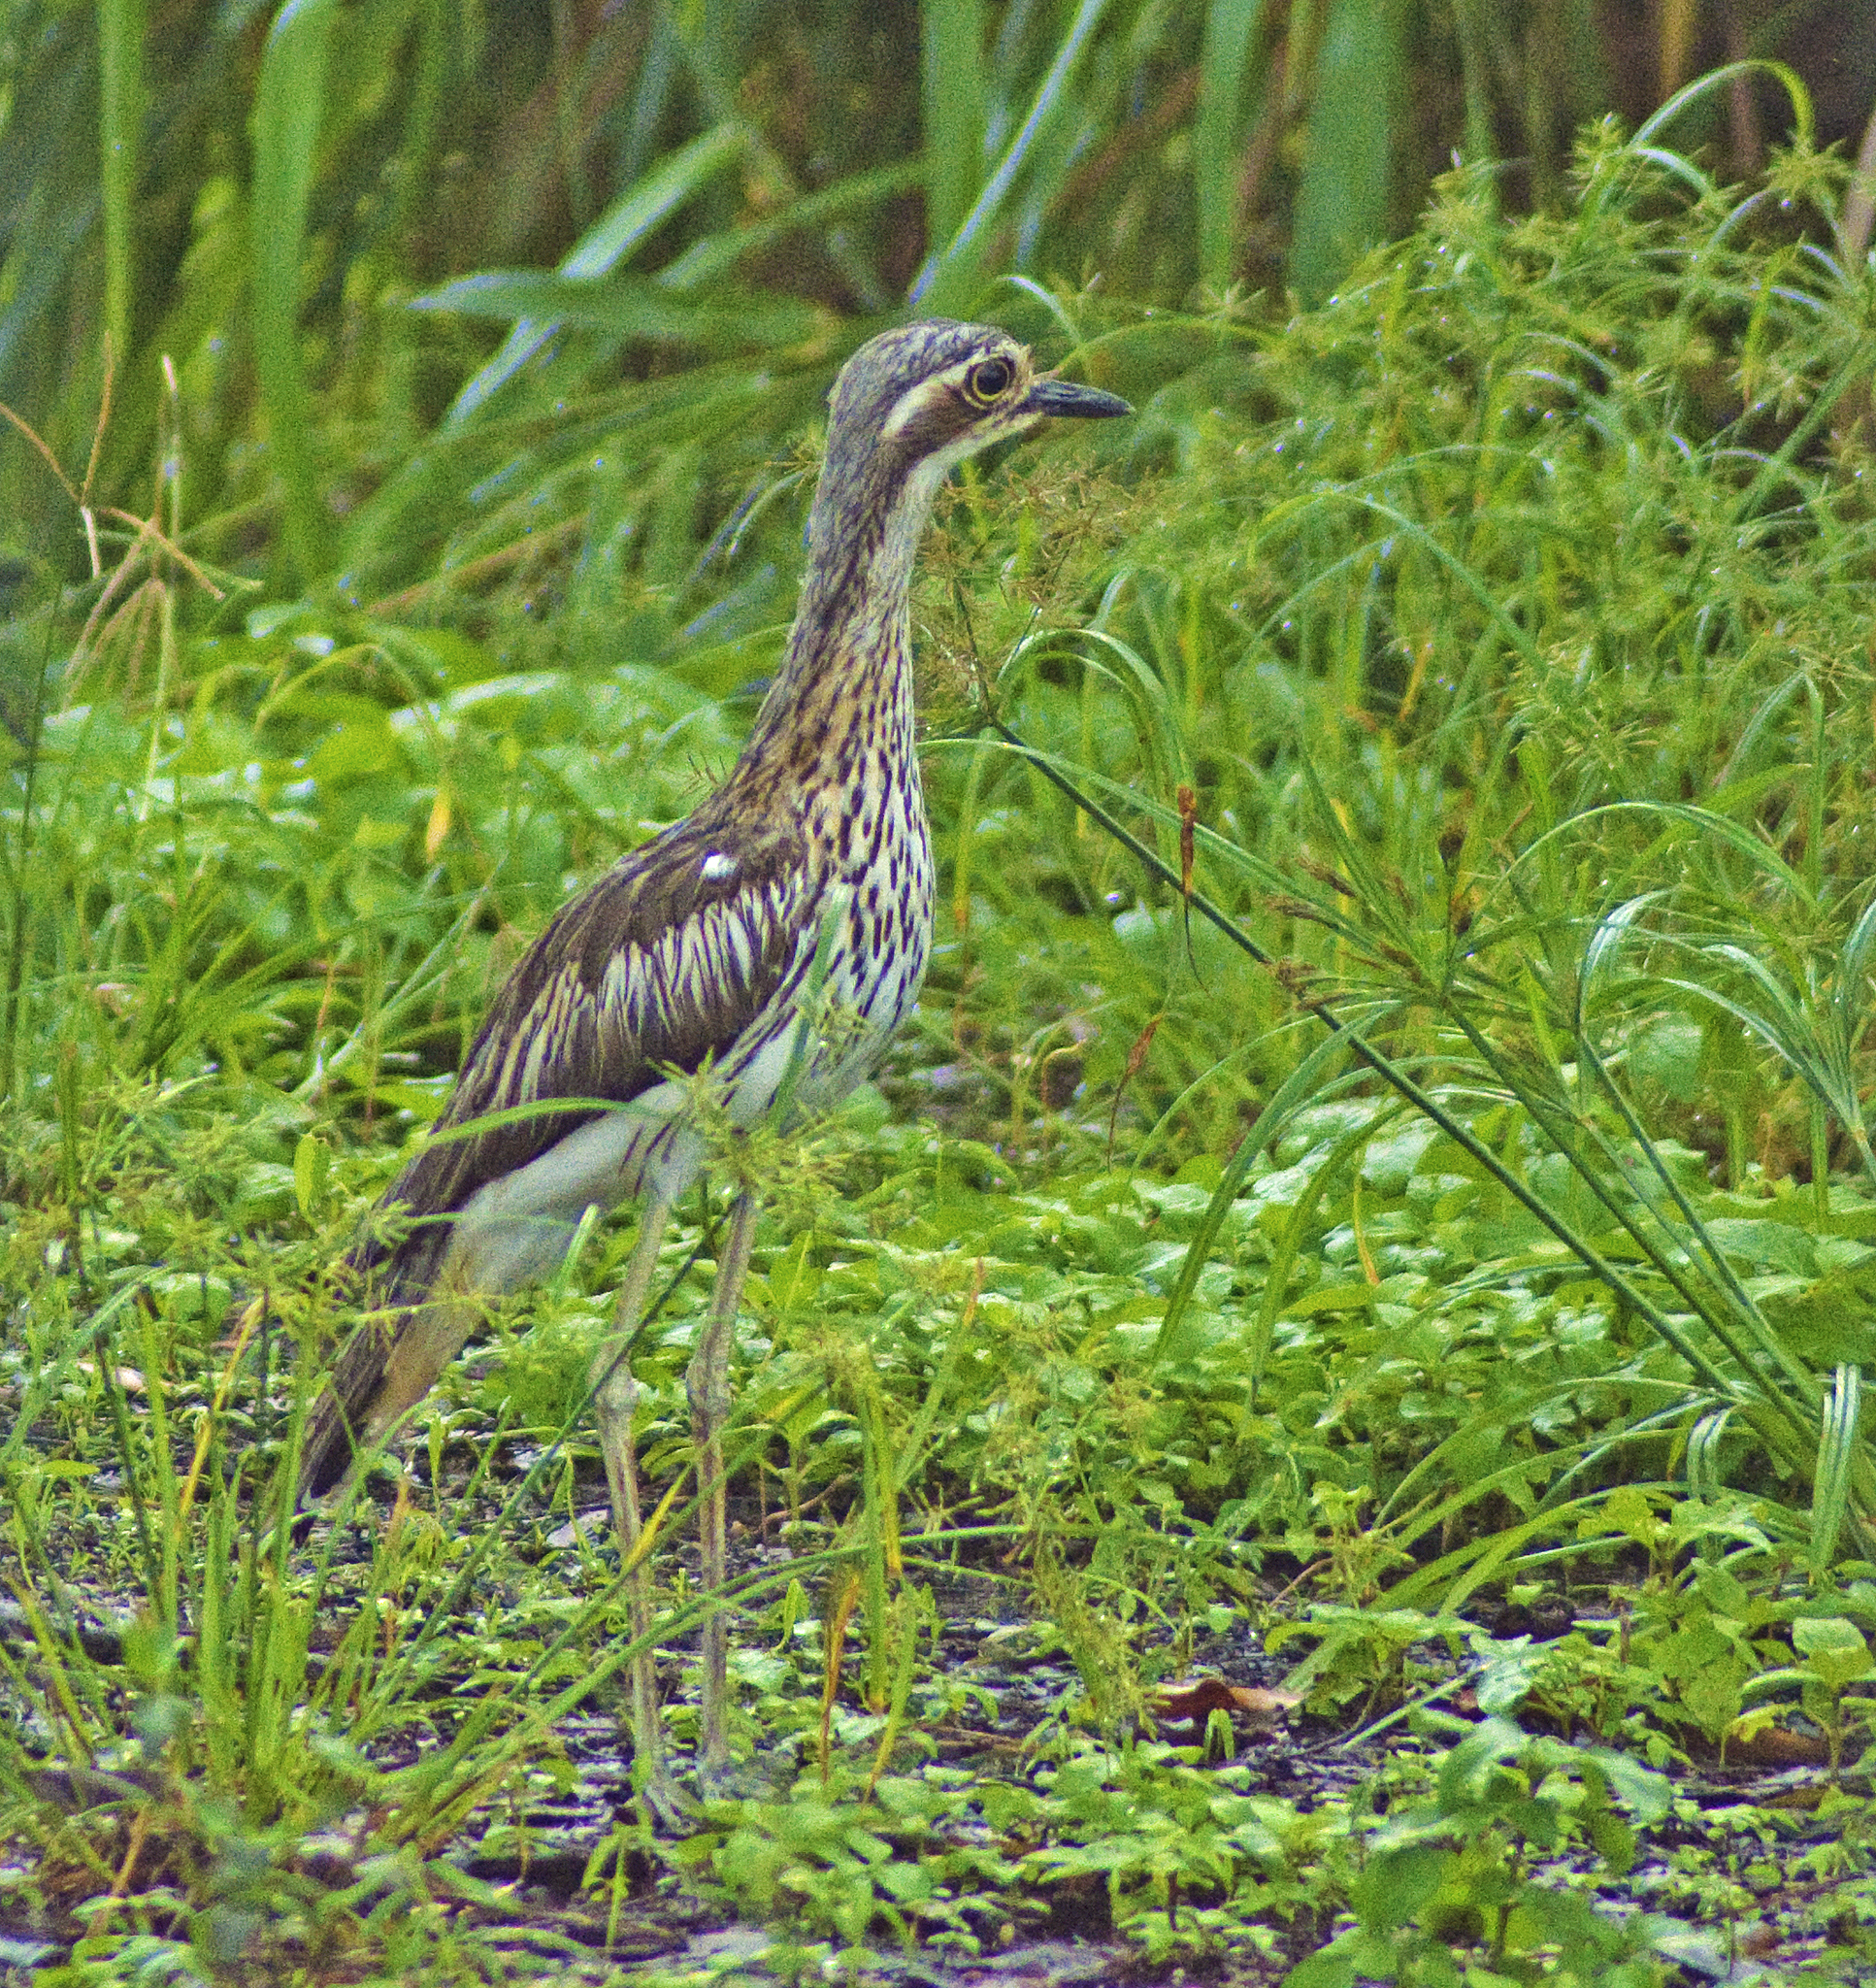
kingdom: Animalia
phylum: Chordata
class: Aves
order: Charadriiformes
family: Burhinidae
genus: Burhinus
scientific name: Burhinus grallarius
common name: Bush stone-curlew
